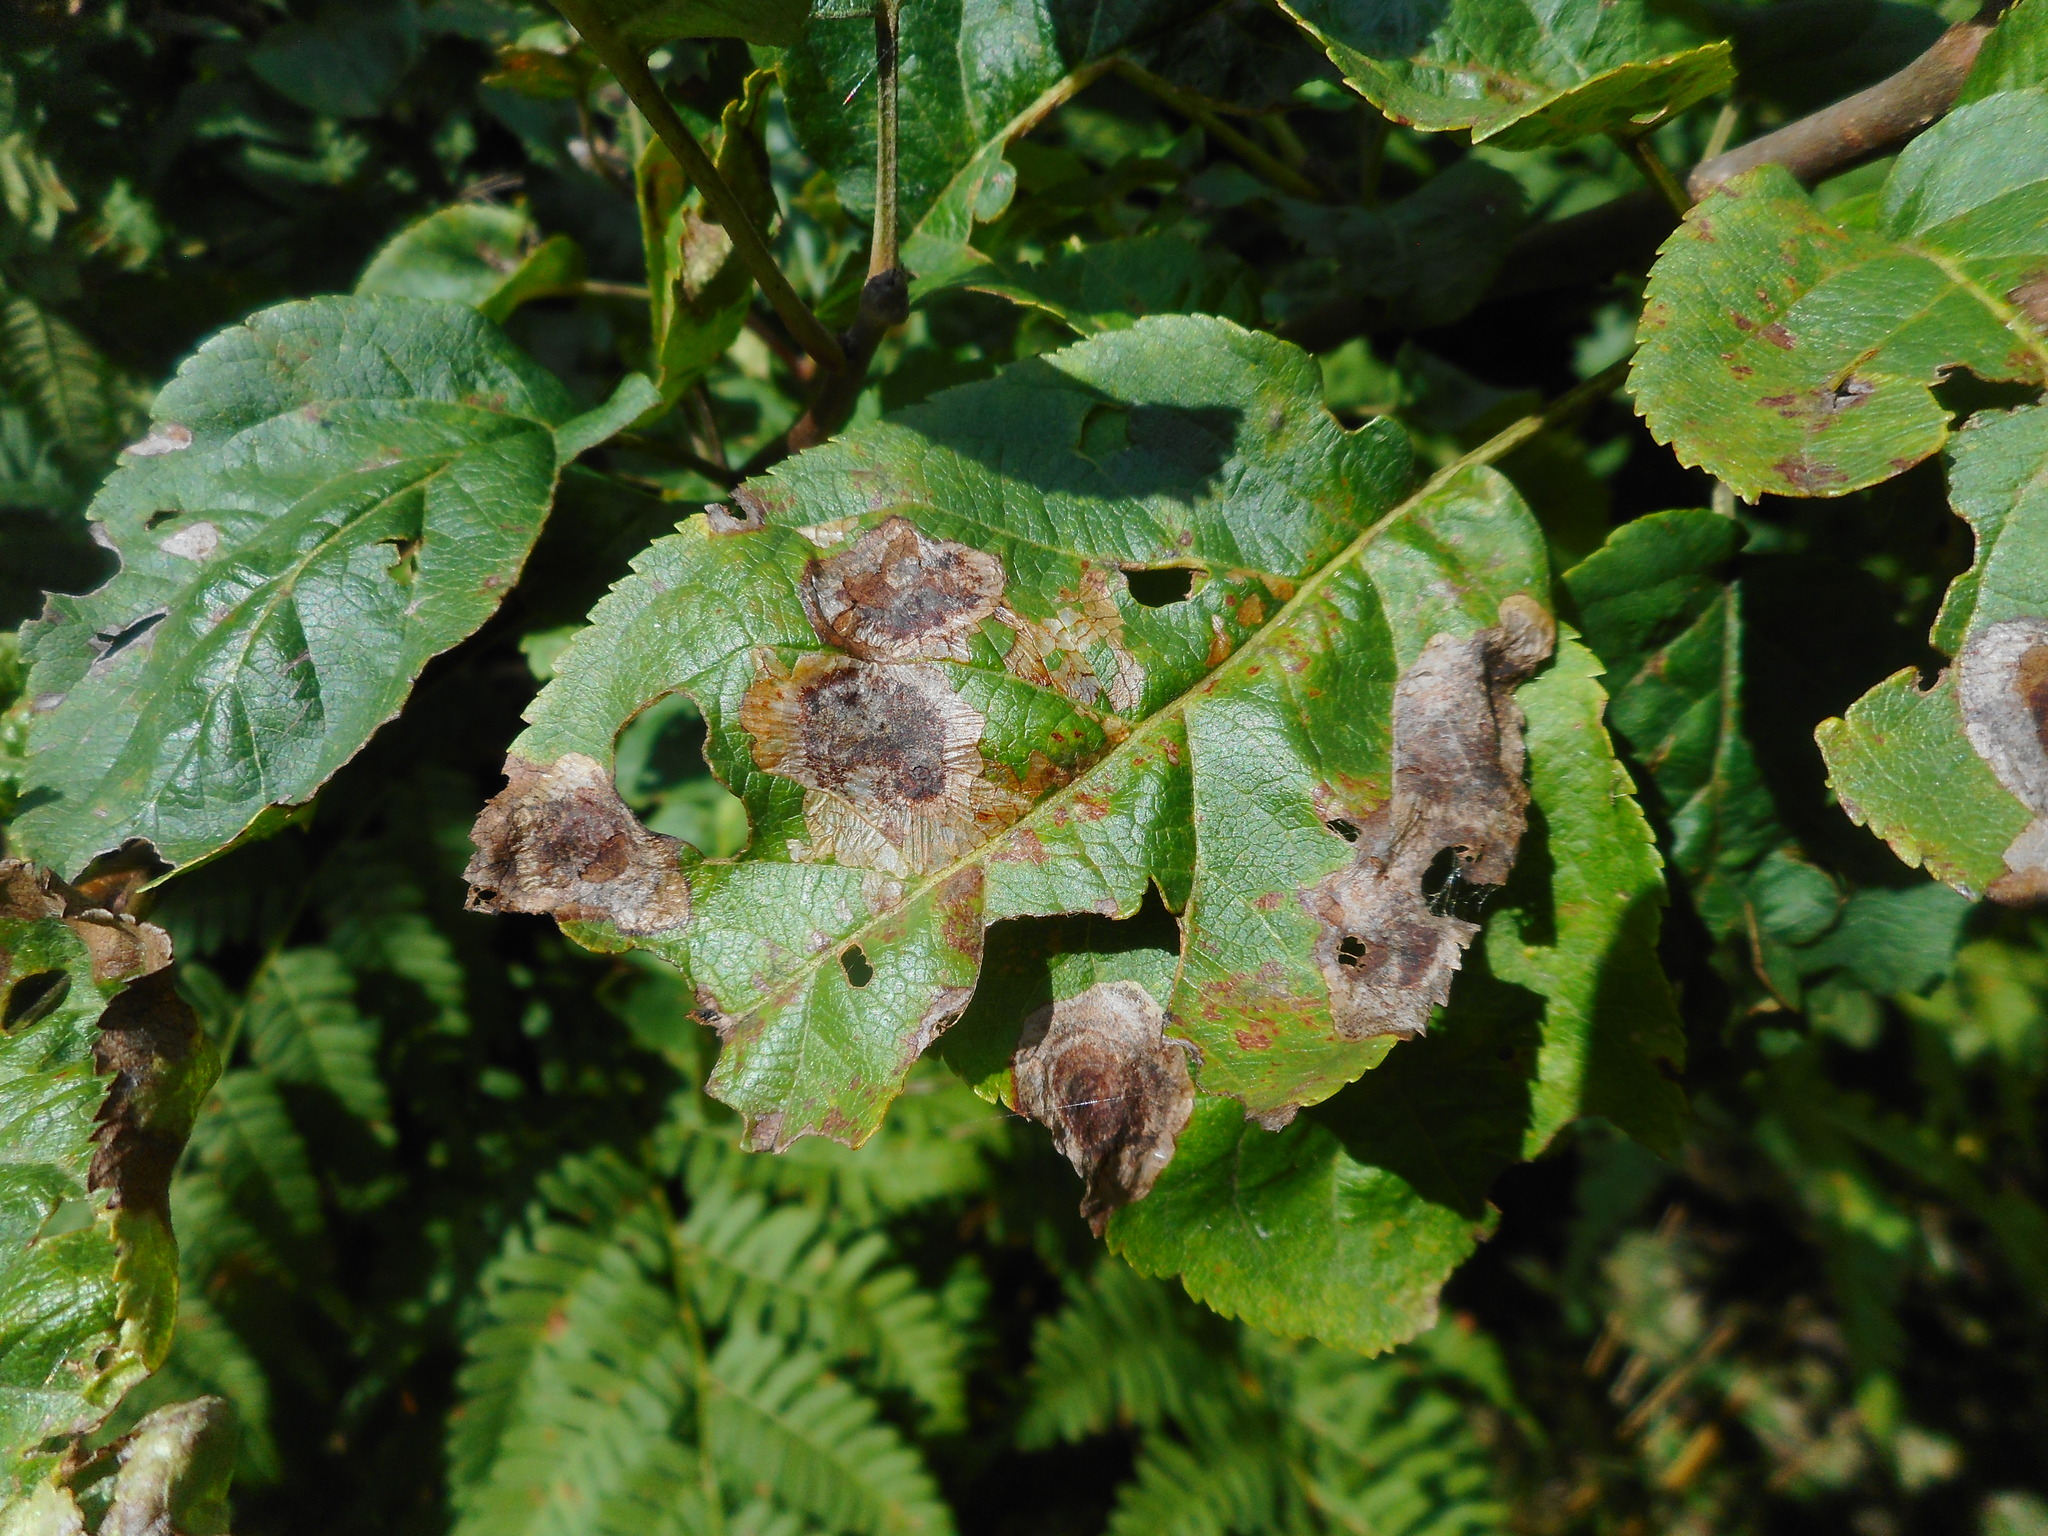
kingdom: Animalia
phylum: Arthropoda
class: Insecta
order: Lepidoptera
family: Lyonetiidae
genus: Leucoptera
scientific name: Leucoptera malifoliella
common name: Pear leaf blister moth
